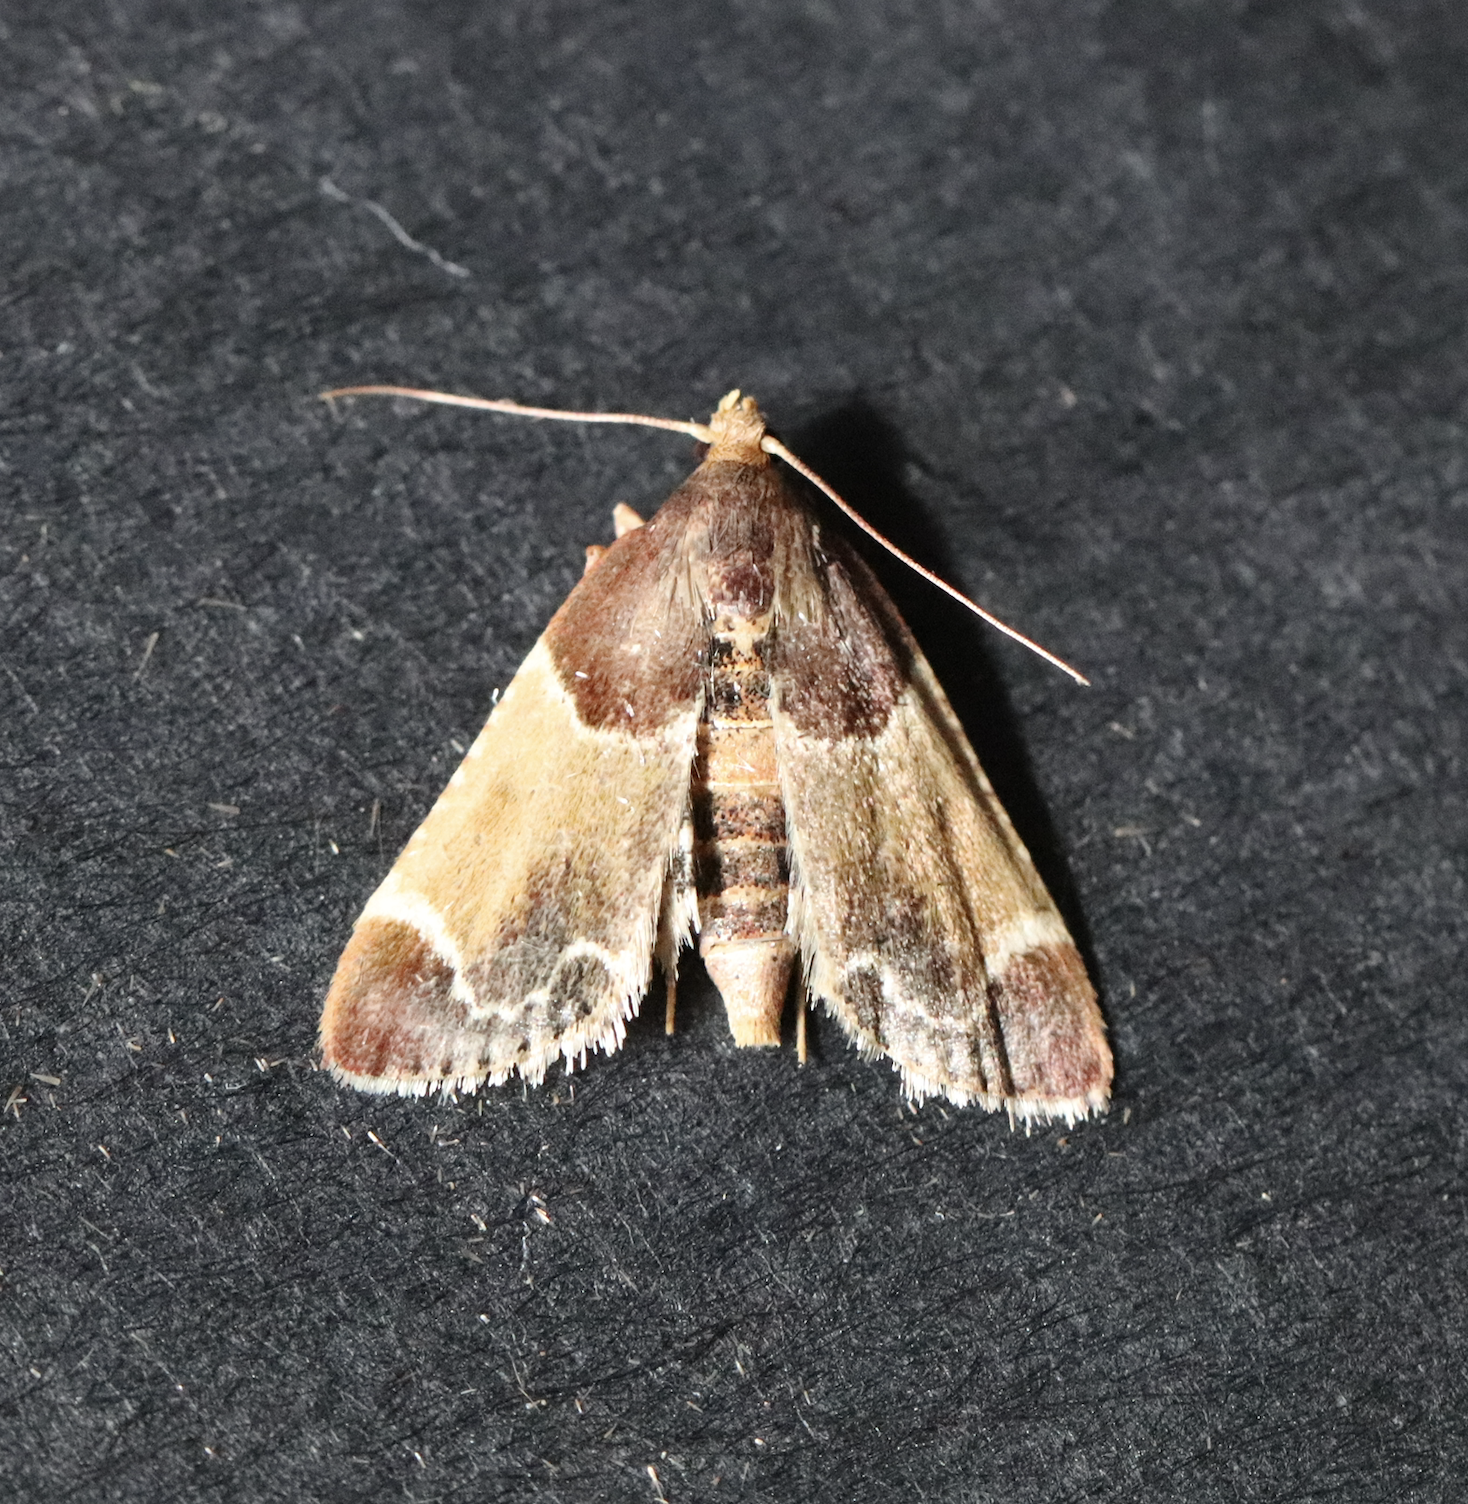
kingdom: Animalia
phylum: Arthropoda
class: Insecta
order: Lepidoptera
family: Pyralidae
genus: Pyralis
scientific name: Pyralis farinalis
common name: Meal moth
